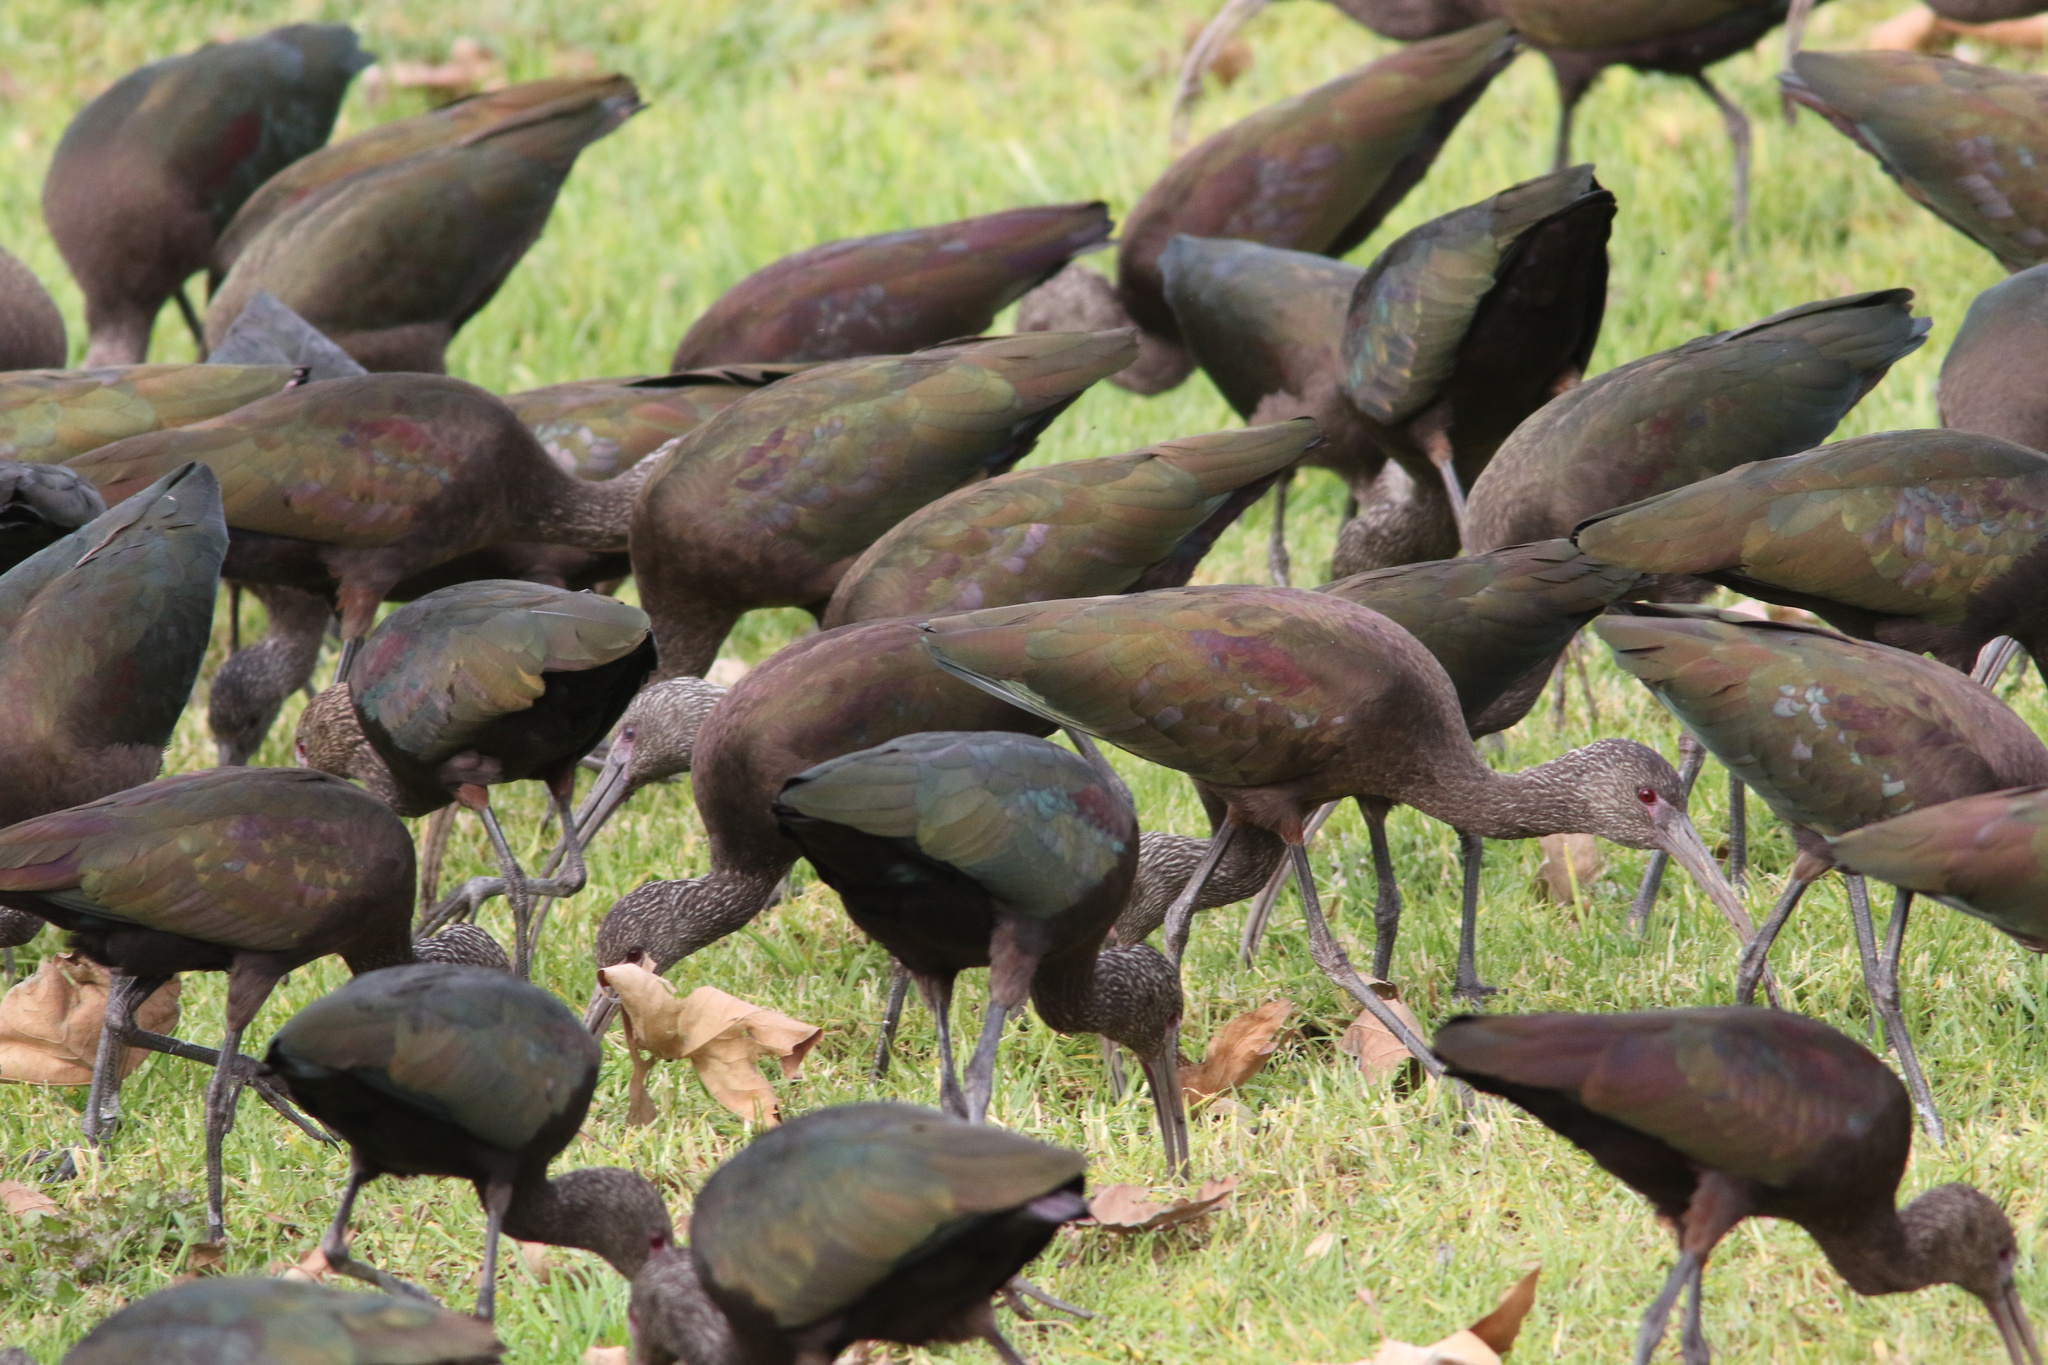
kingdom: Animalia
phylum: Chordata
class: Aves
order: Pelecaniformes
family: Threskiornithidae
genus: Plegadis
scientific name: Plegadis chihi
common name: White-faced ibis
